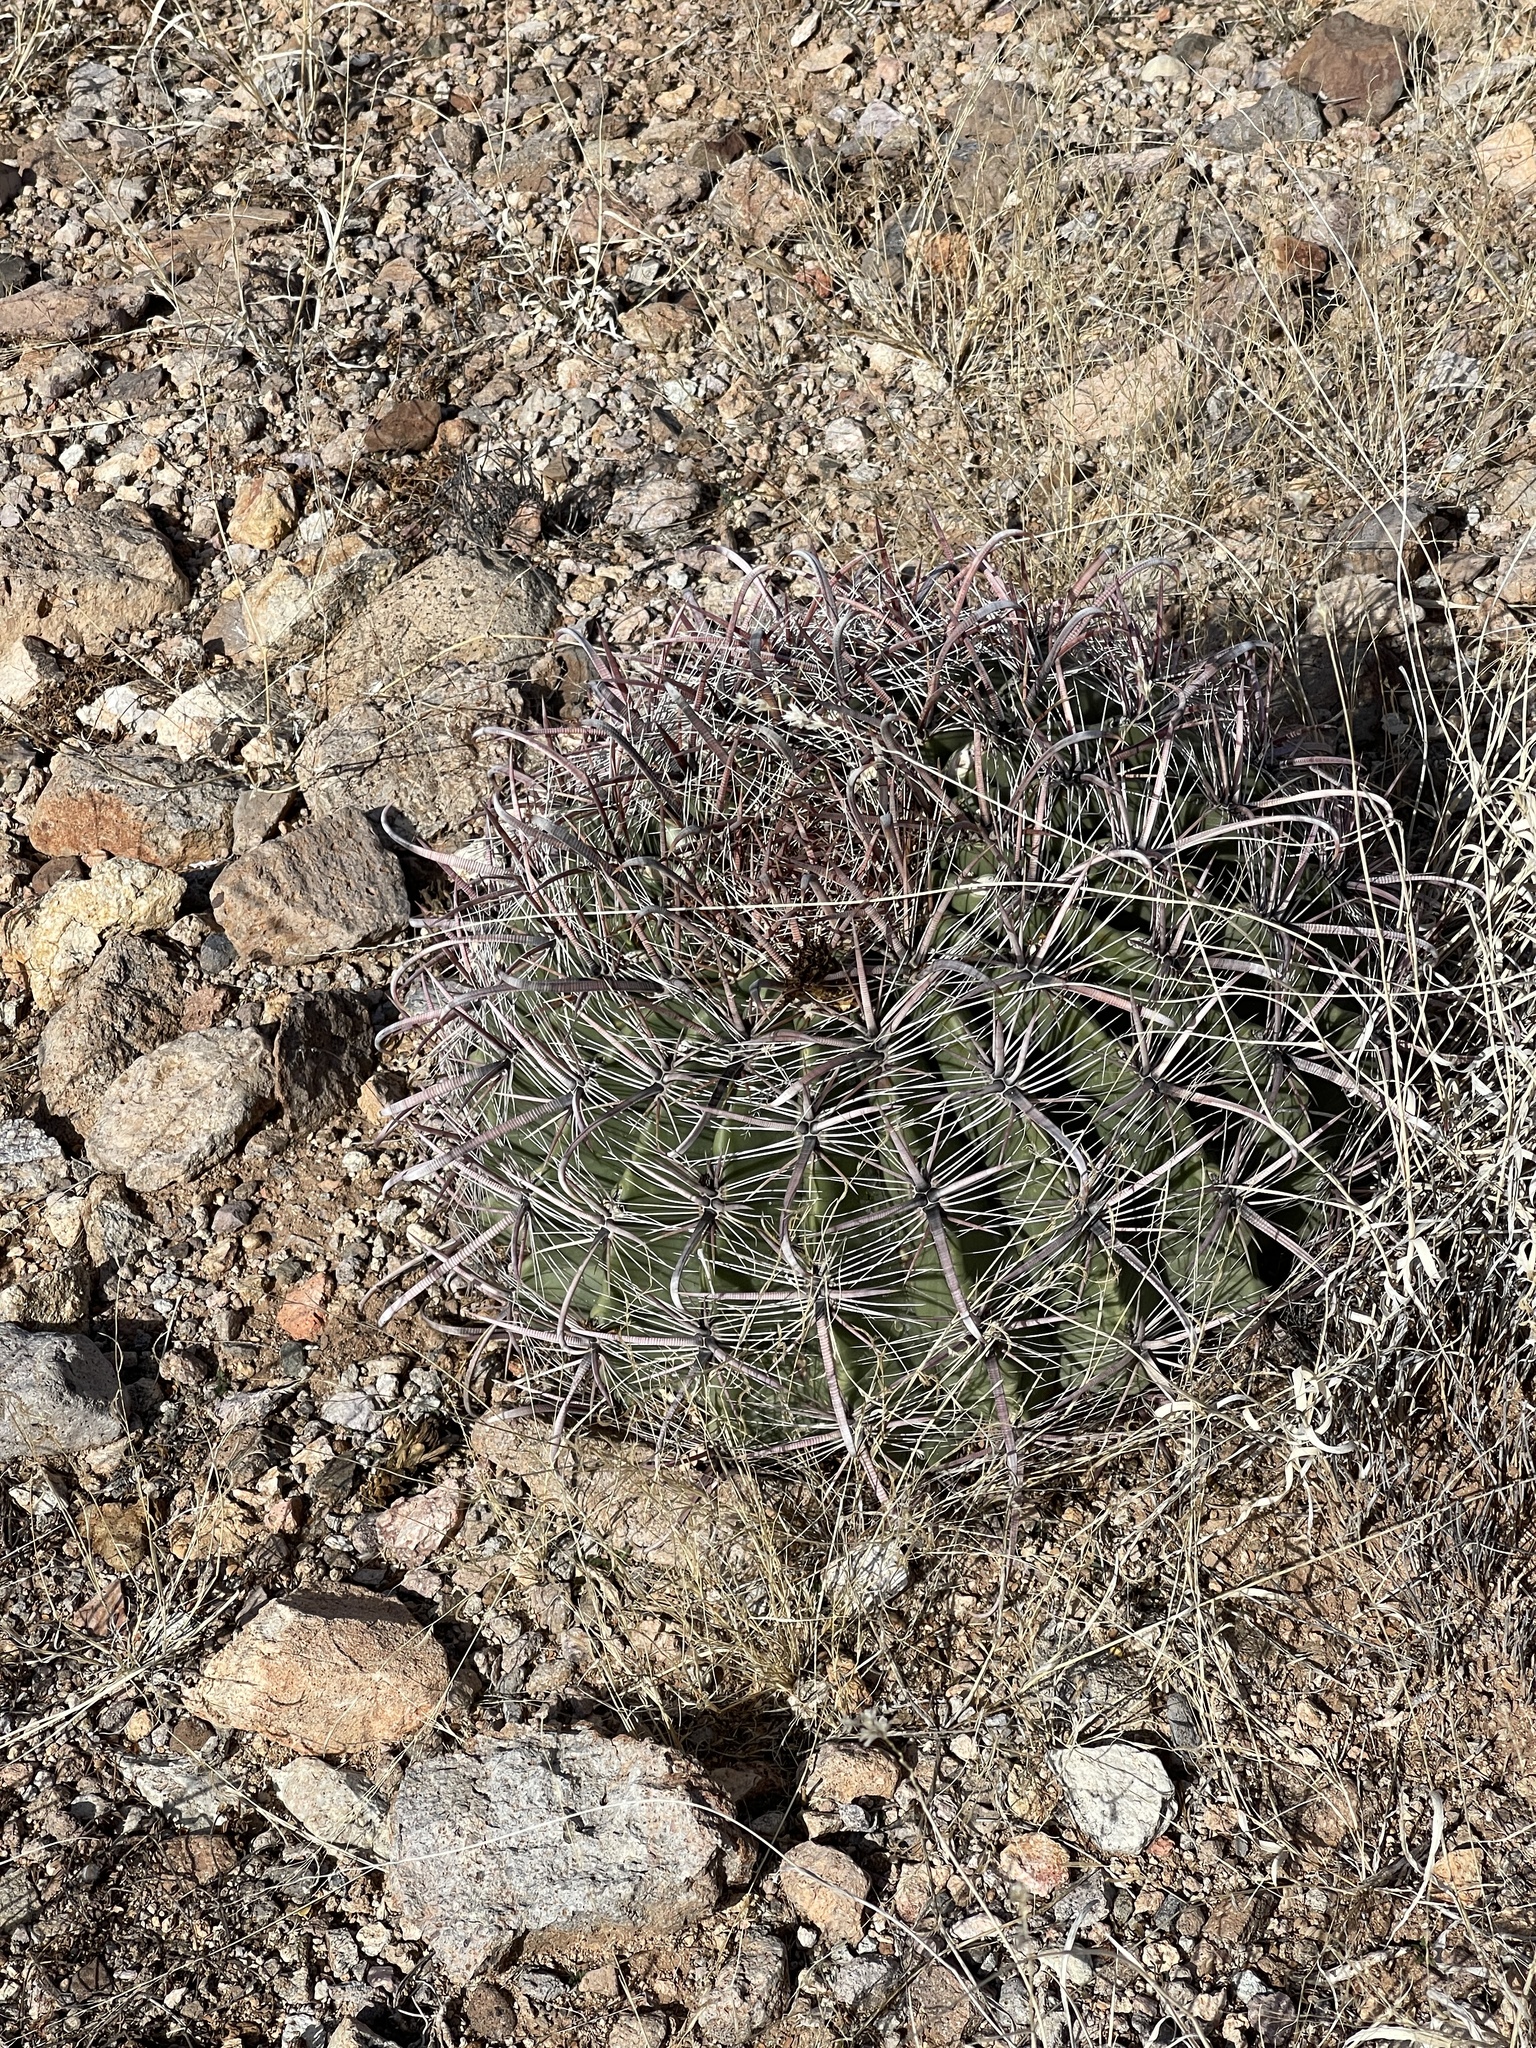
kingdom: Plantae
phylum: Tracheophyta
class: Magnoliopsida
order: Caryophyllales
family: Cactaceae
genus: Ferocactus
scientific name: Ferocactus wislizeni
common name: Candy barrel cactus
